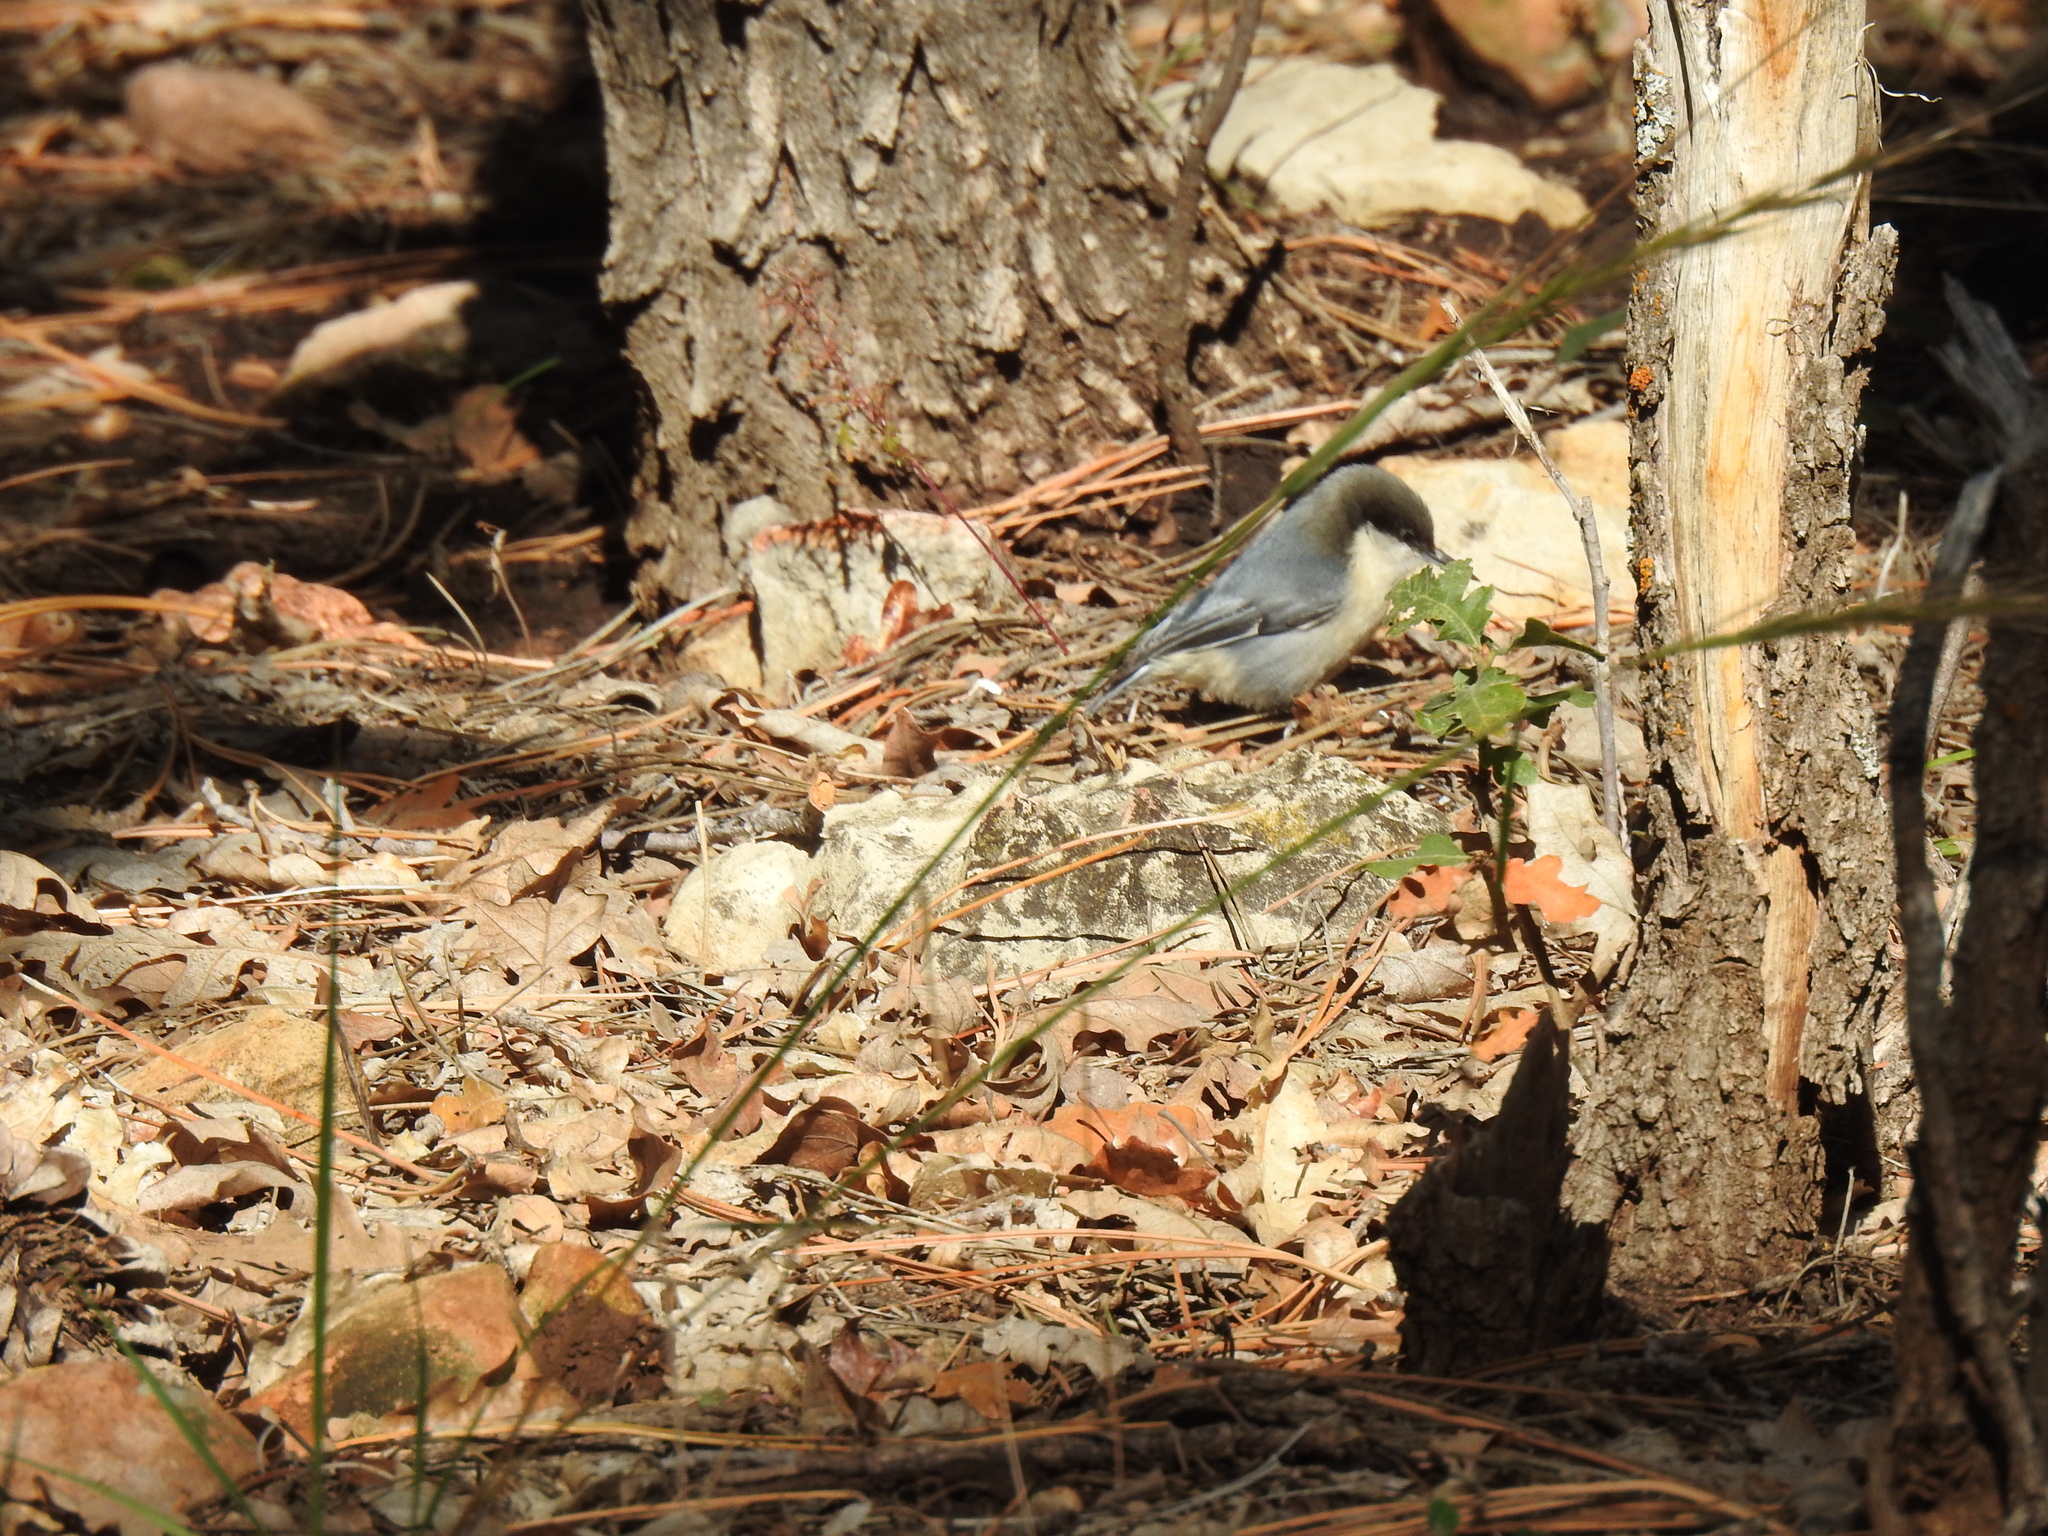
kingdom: Animalia
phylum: Chordata
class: Aves
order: Passeriformes
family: Sittidae
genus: Sitta
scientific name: Sitta pygmaea
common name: Pygmy nuthatch
